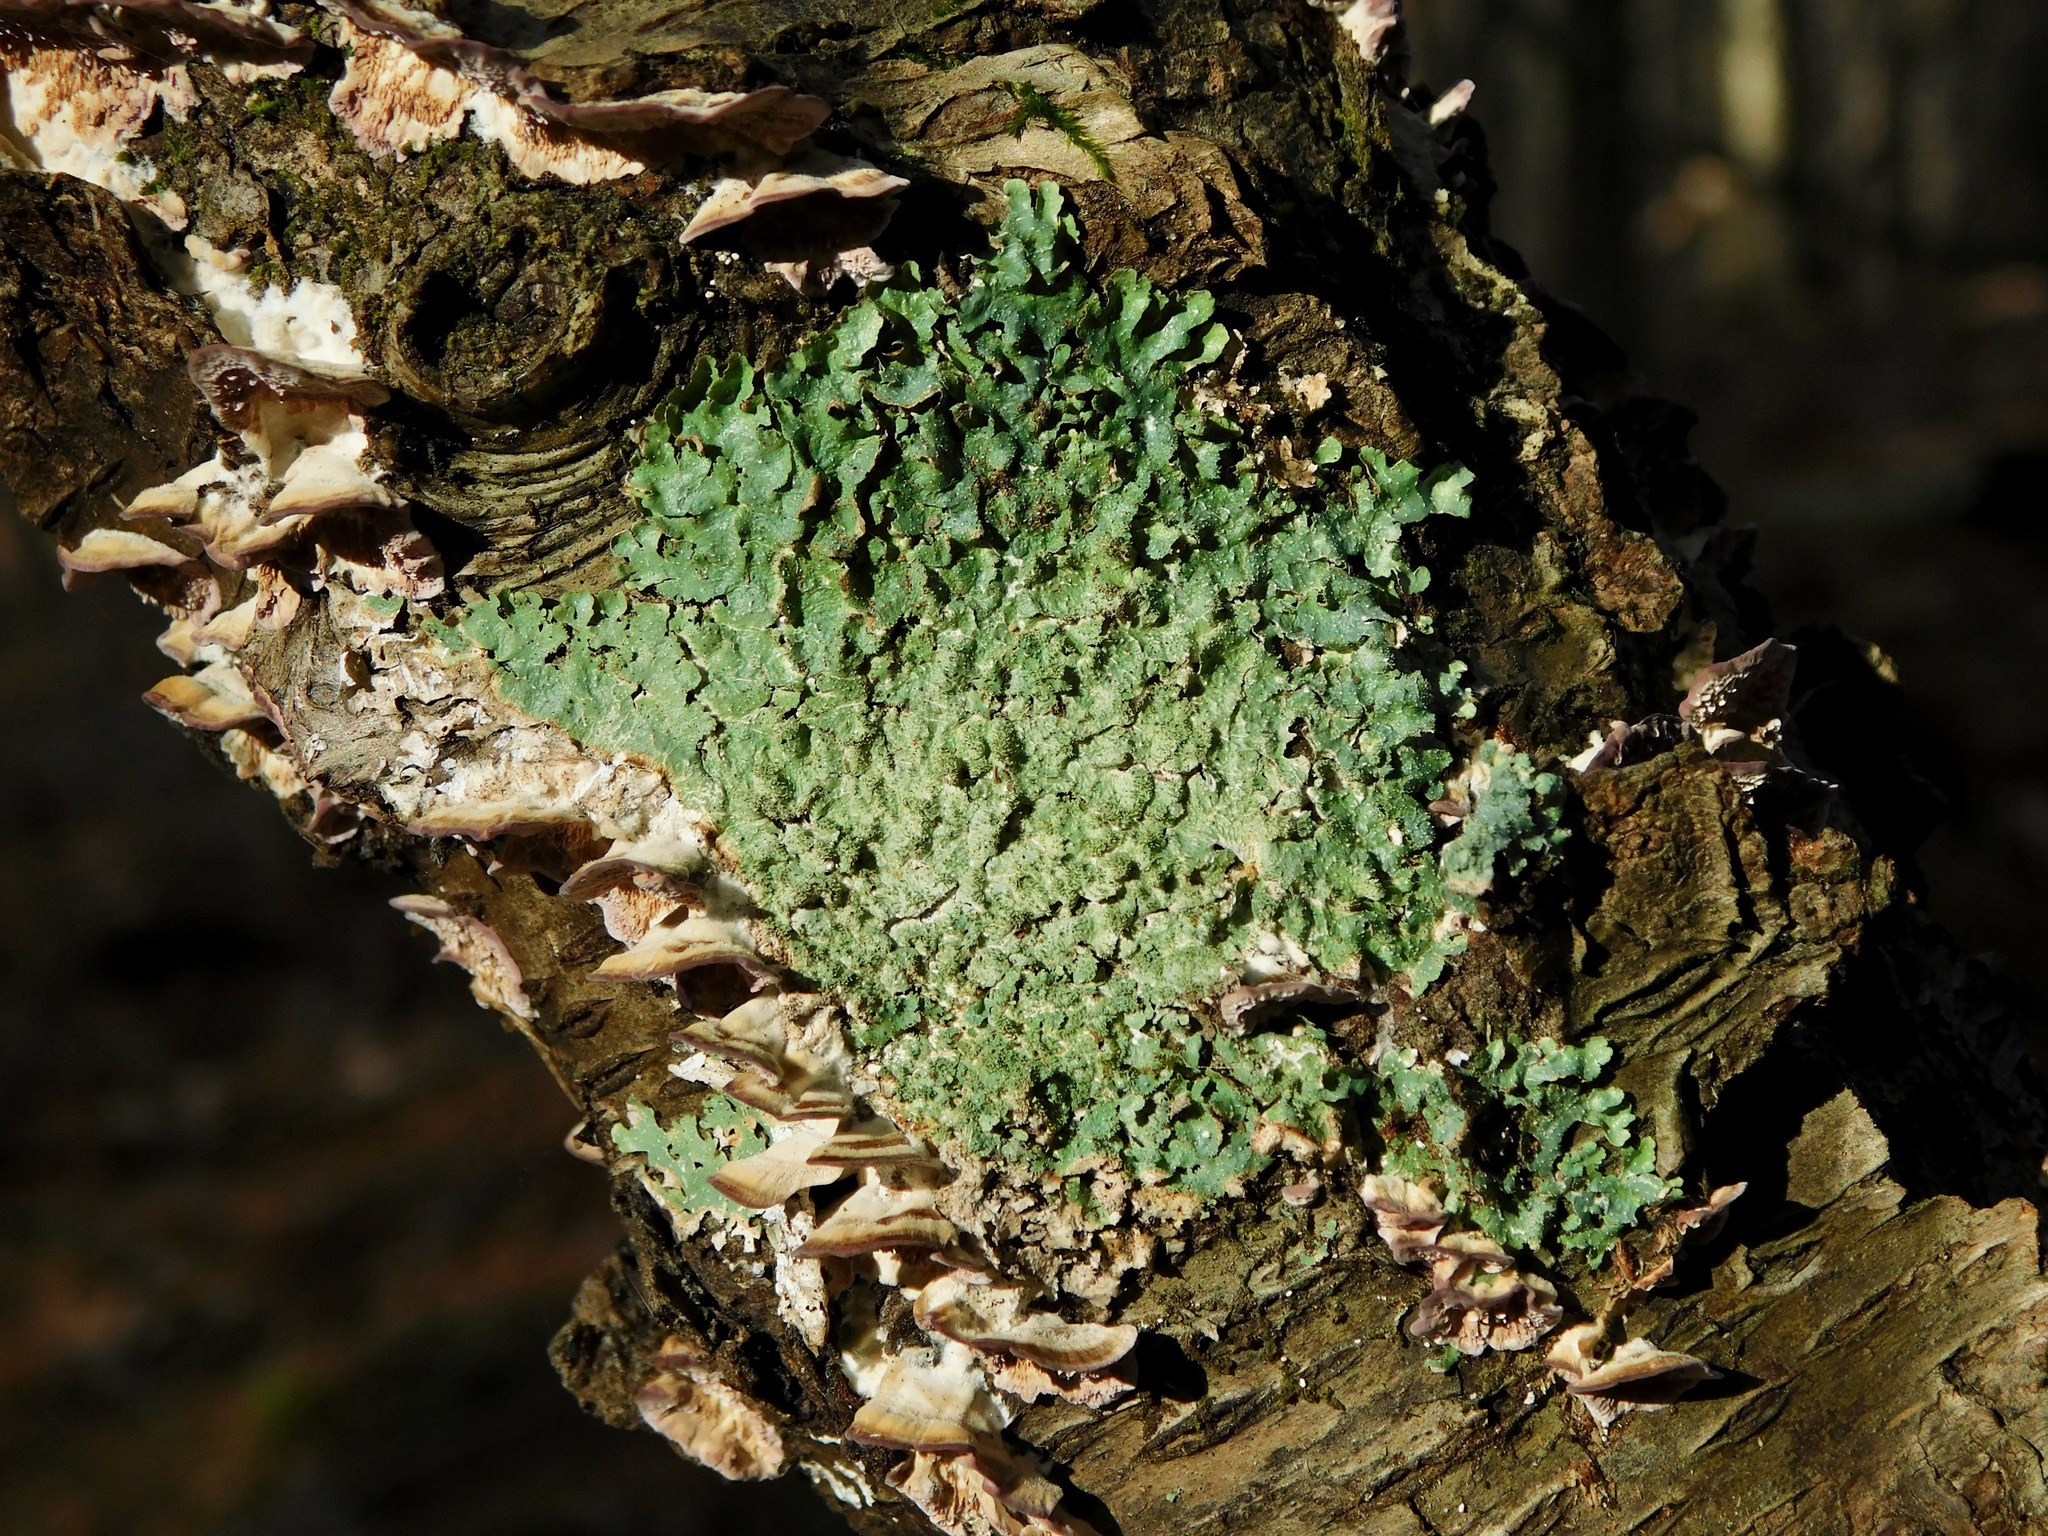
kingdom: Fungi
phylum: Ascomycota
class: Lecanoromycetes
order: Lecanorales
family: Parmeliaceae
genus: Punctelia
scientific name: Punctelia rudecta
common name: Rough speckled shield lichen
